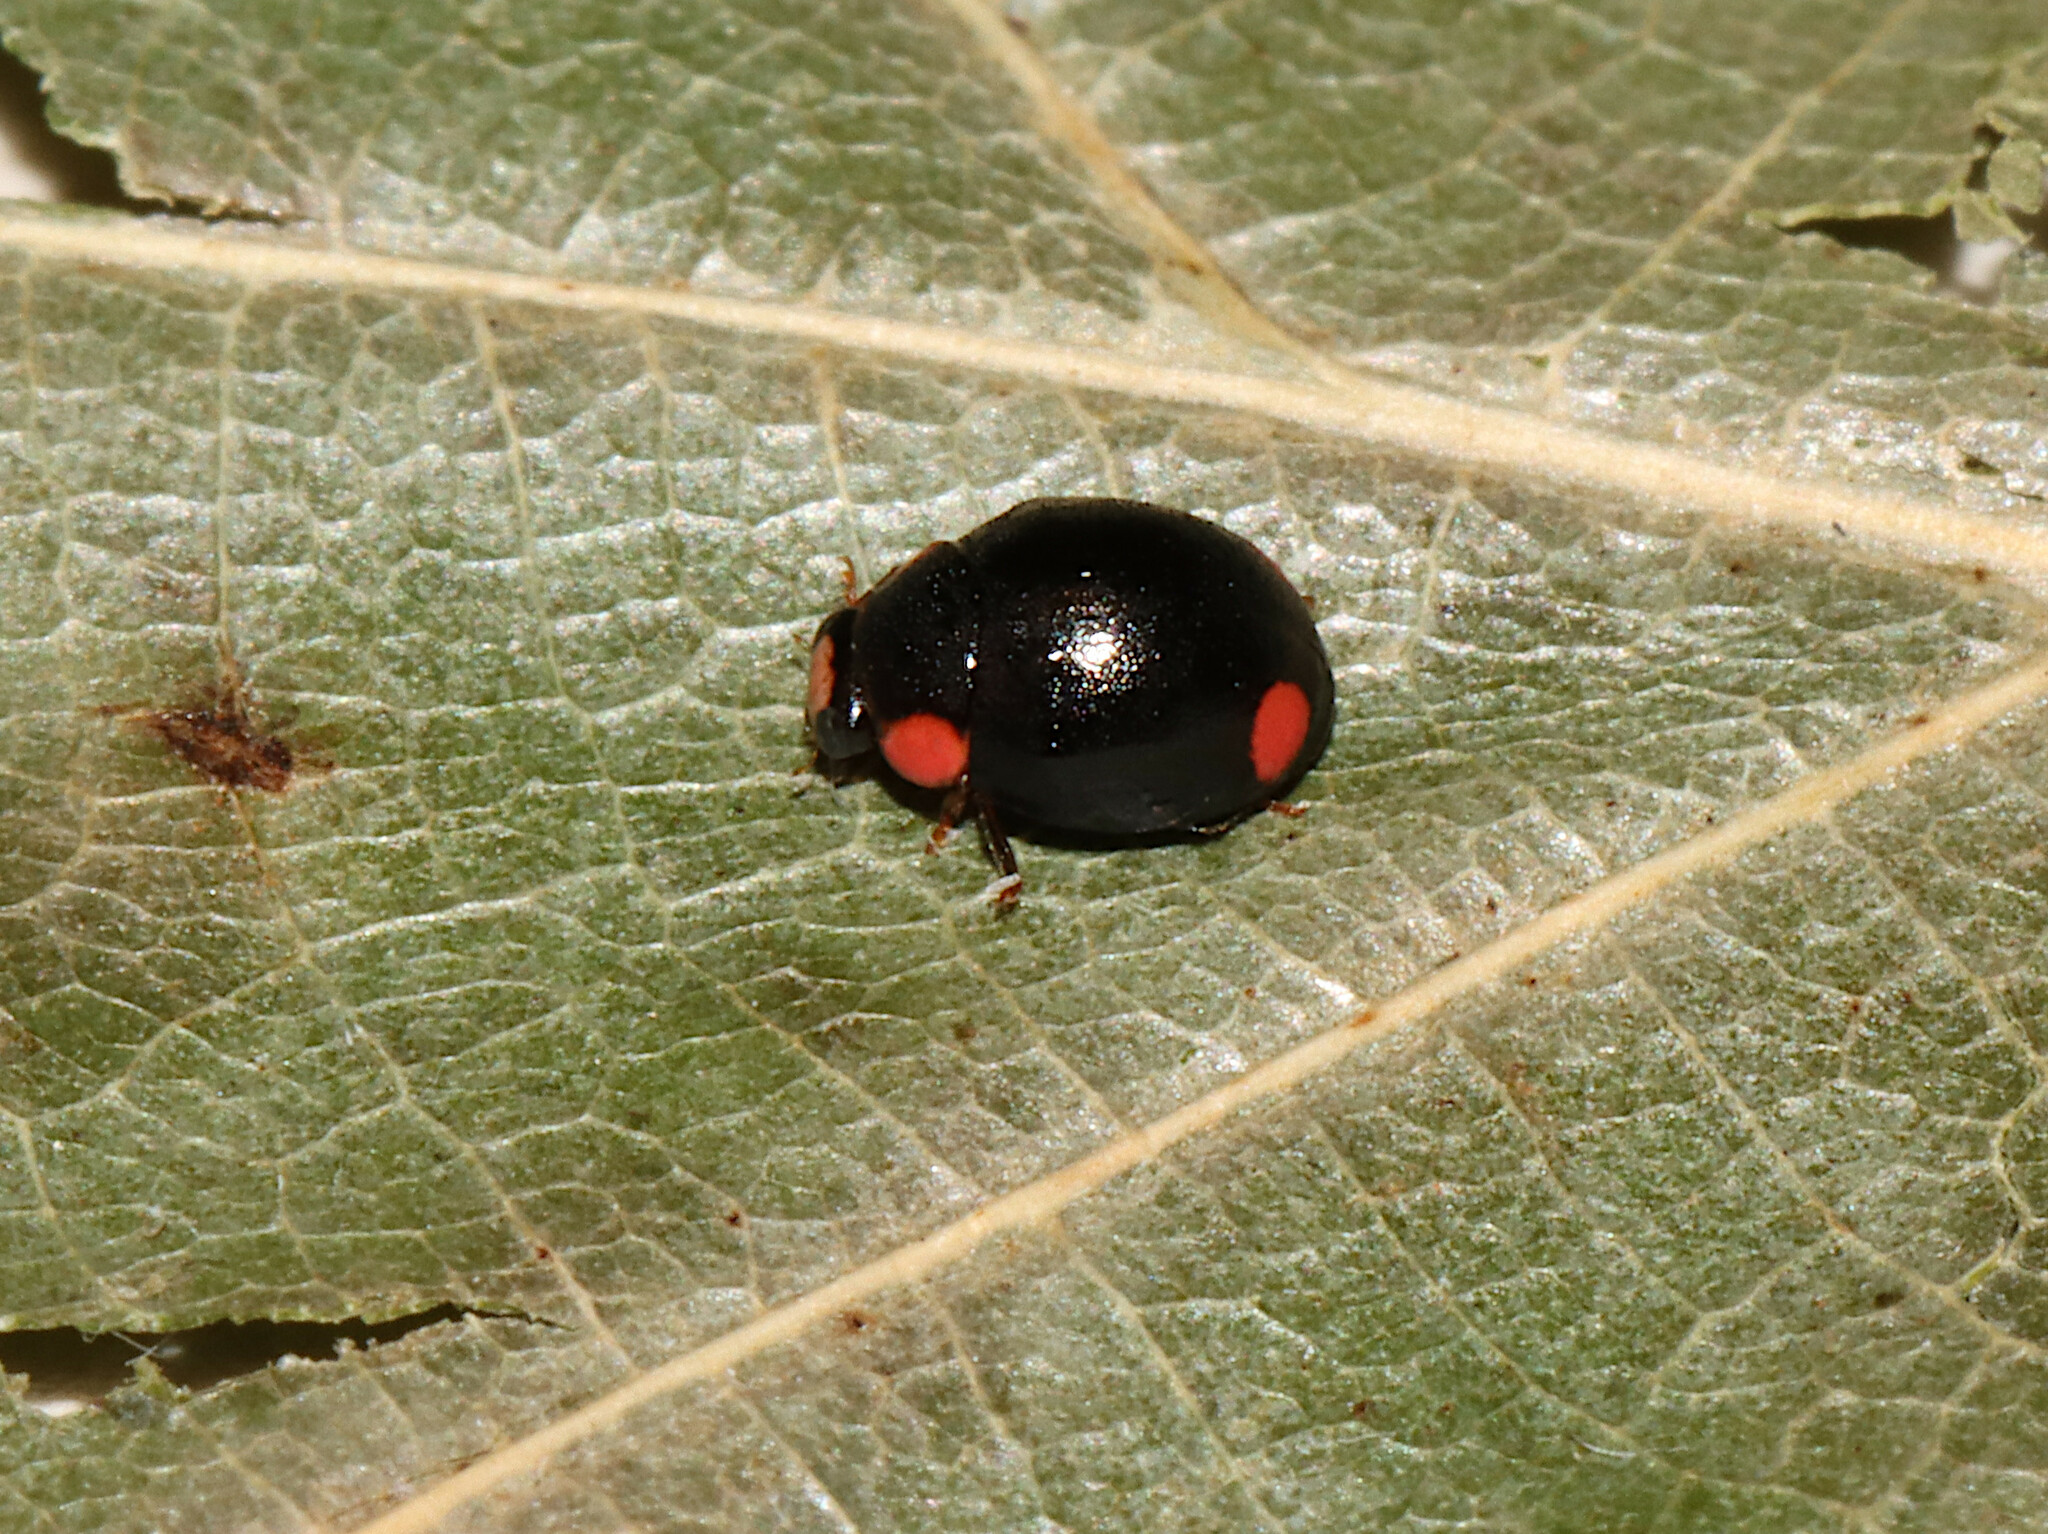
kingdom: Animalia
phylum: Arthropoda
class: Insecta
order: Coleoptera
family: Coccinellidae
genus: Hyperaspis
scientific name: Hyperaspis bigeminata
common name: Bigeminate sigil lady beetle
